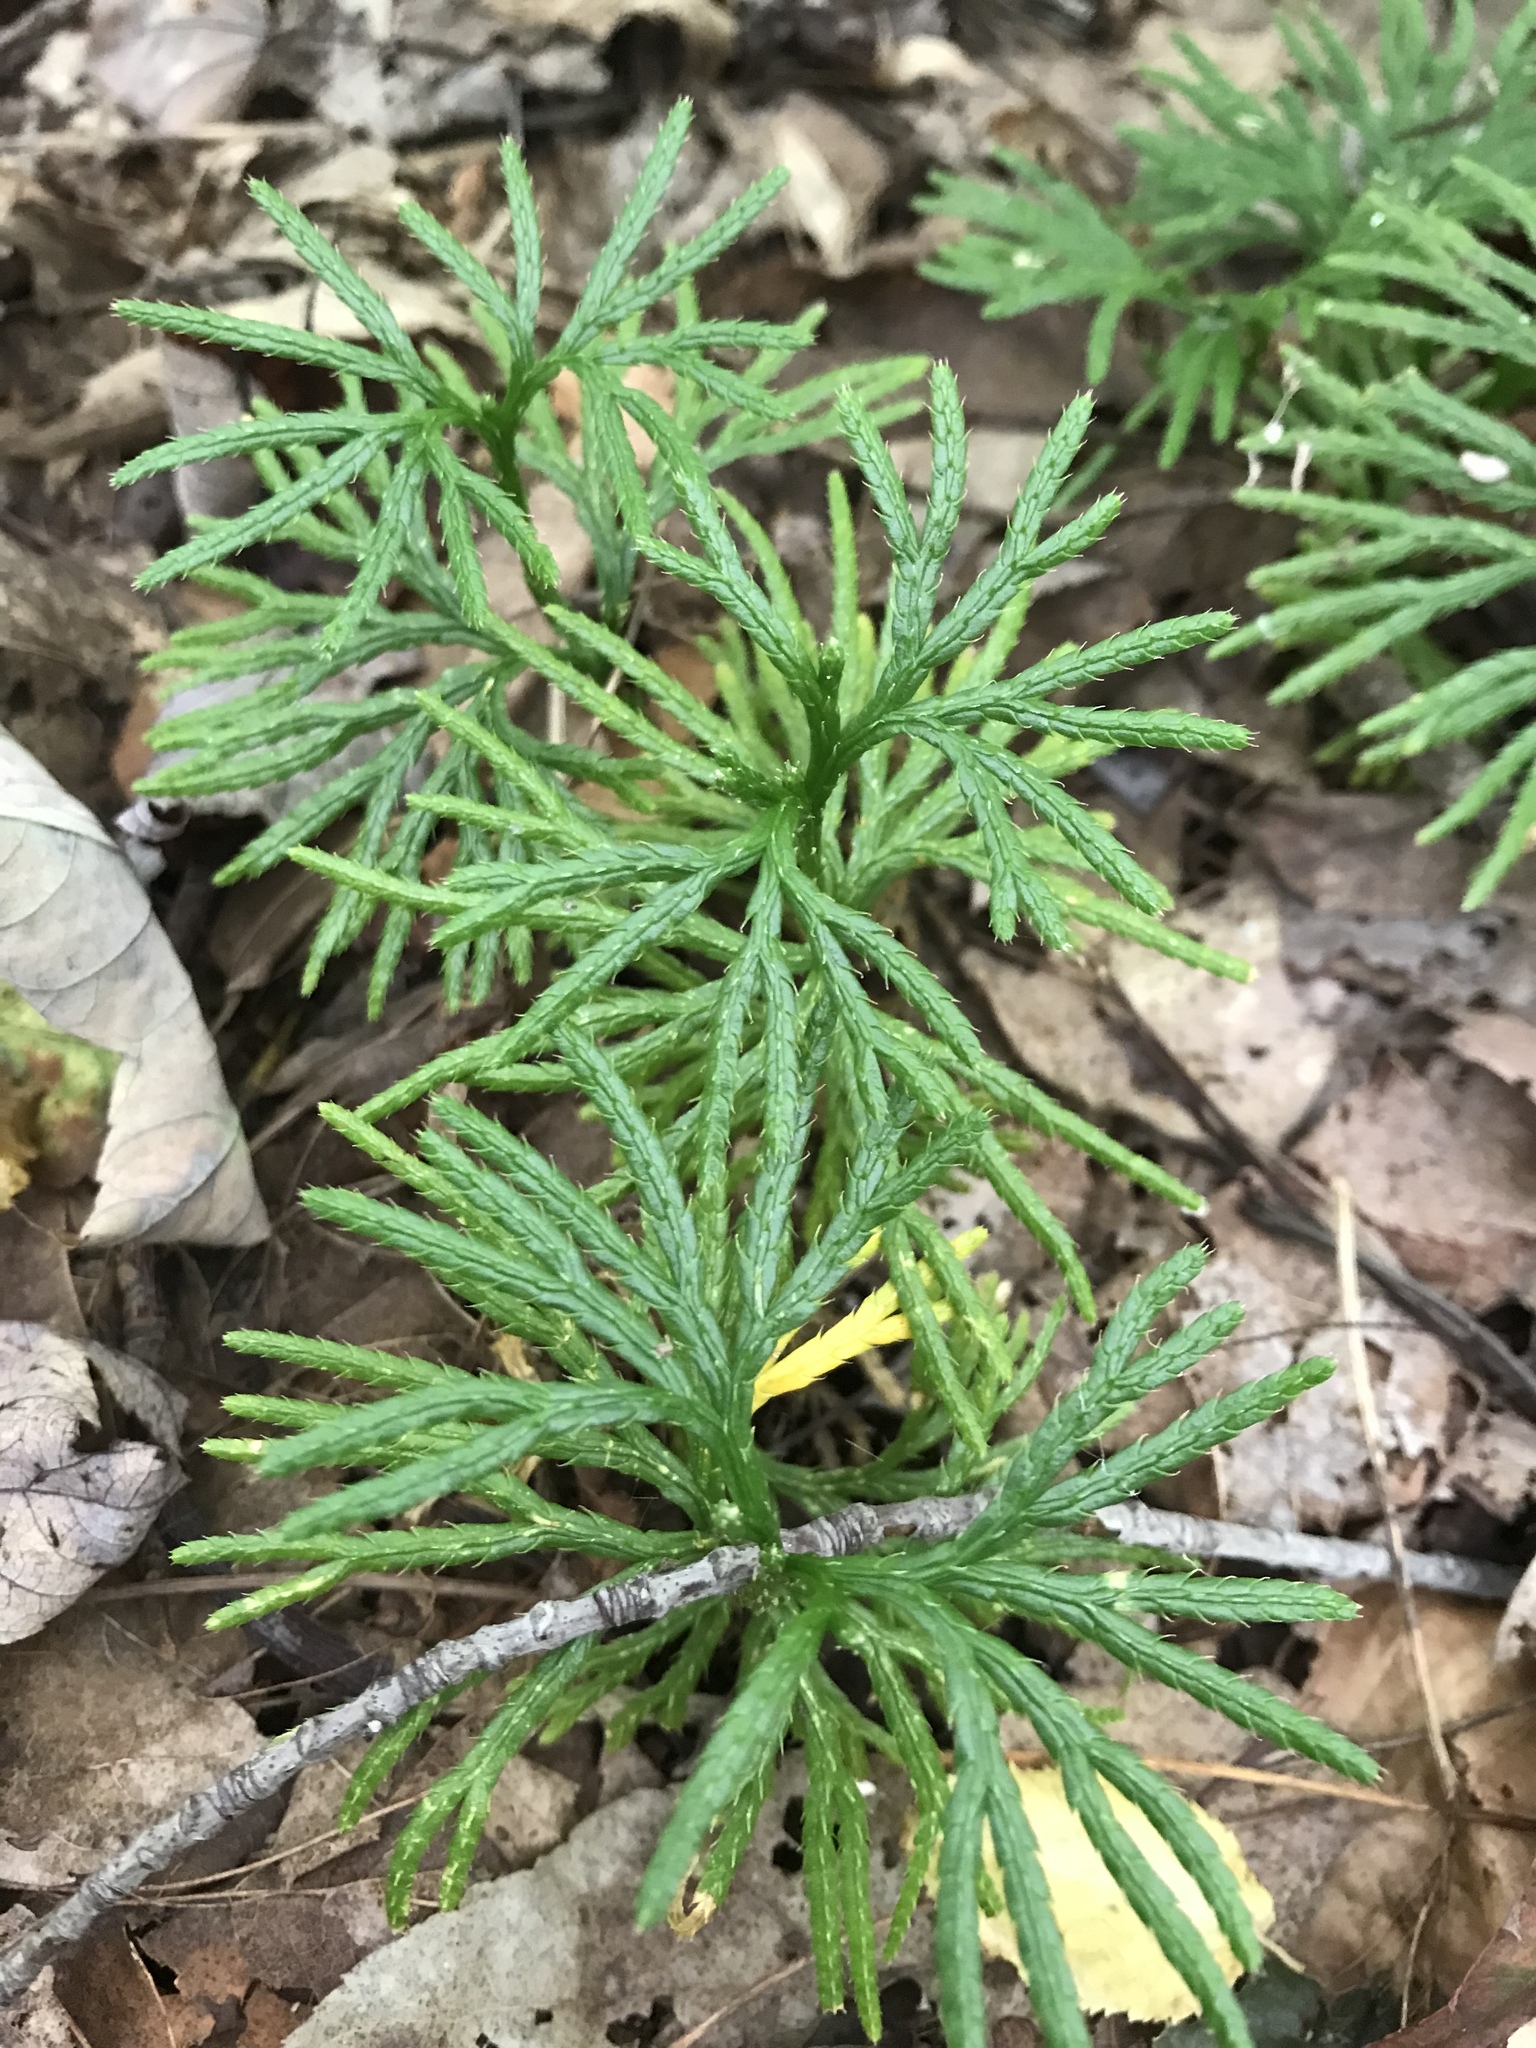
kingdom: Plantae
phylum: Tracheophyta
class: Lycopodiopsida
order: Lycopodiales
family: Lycopodiaceae
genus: Diphasiastrum
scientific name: Diphasiastrum digitatum
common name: Southern running-pine
